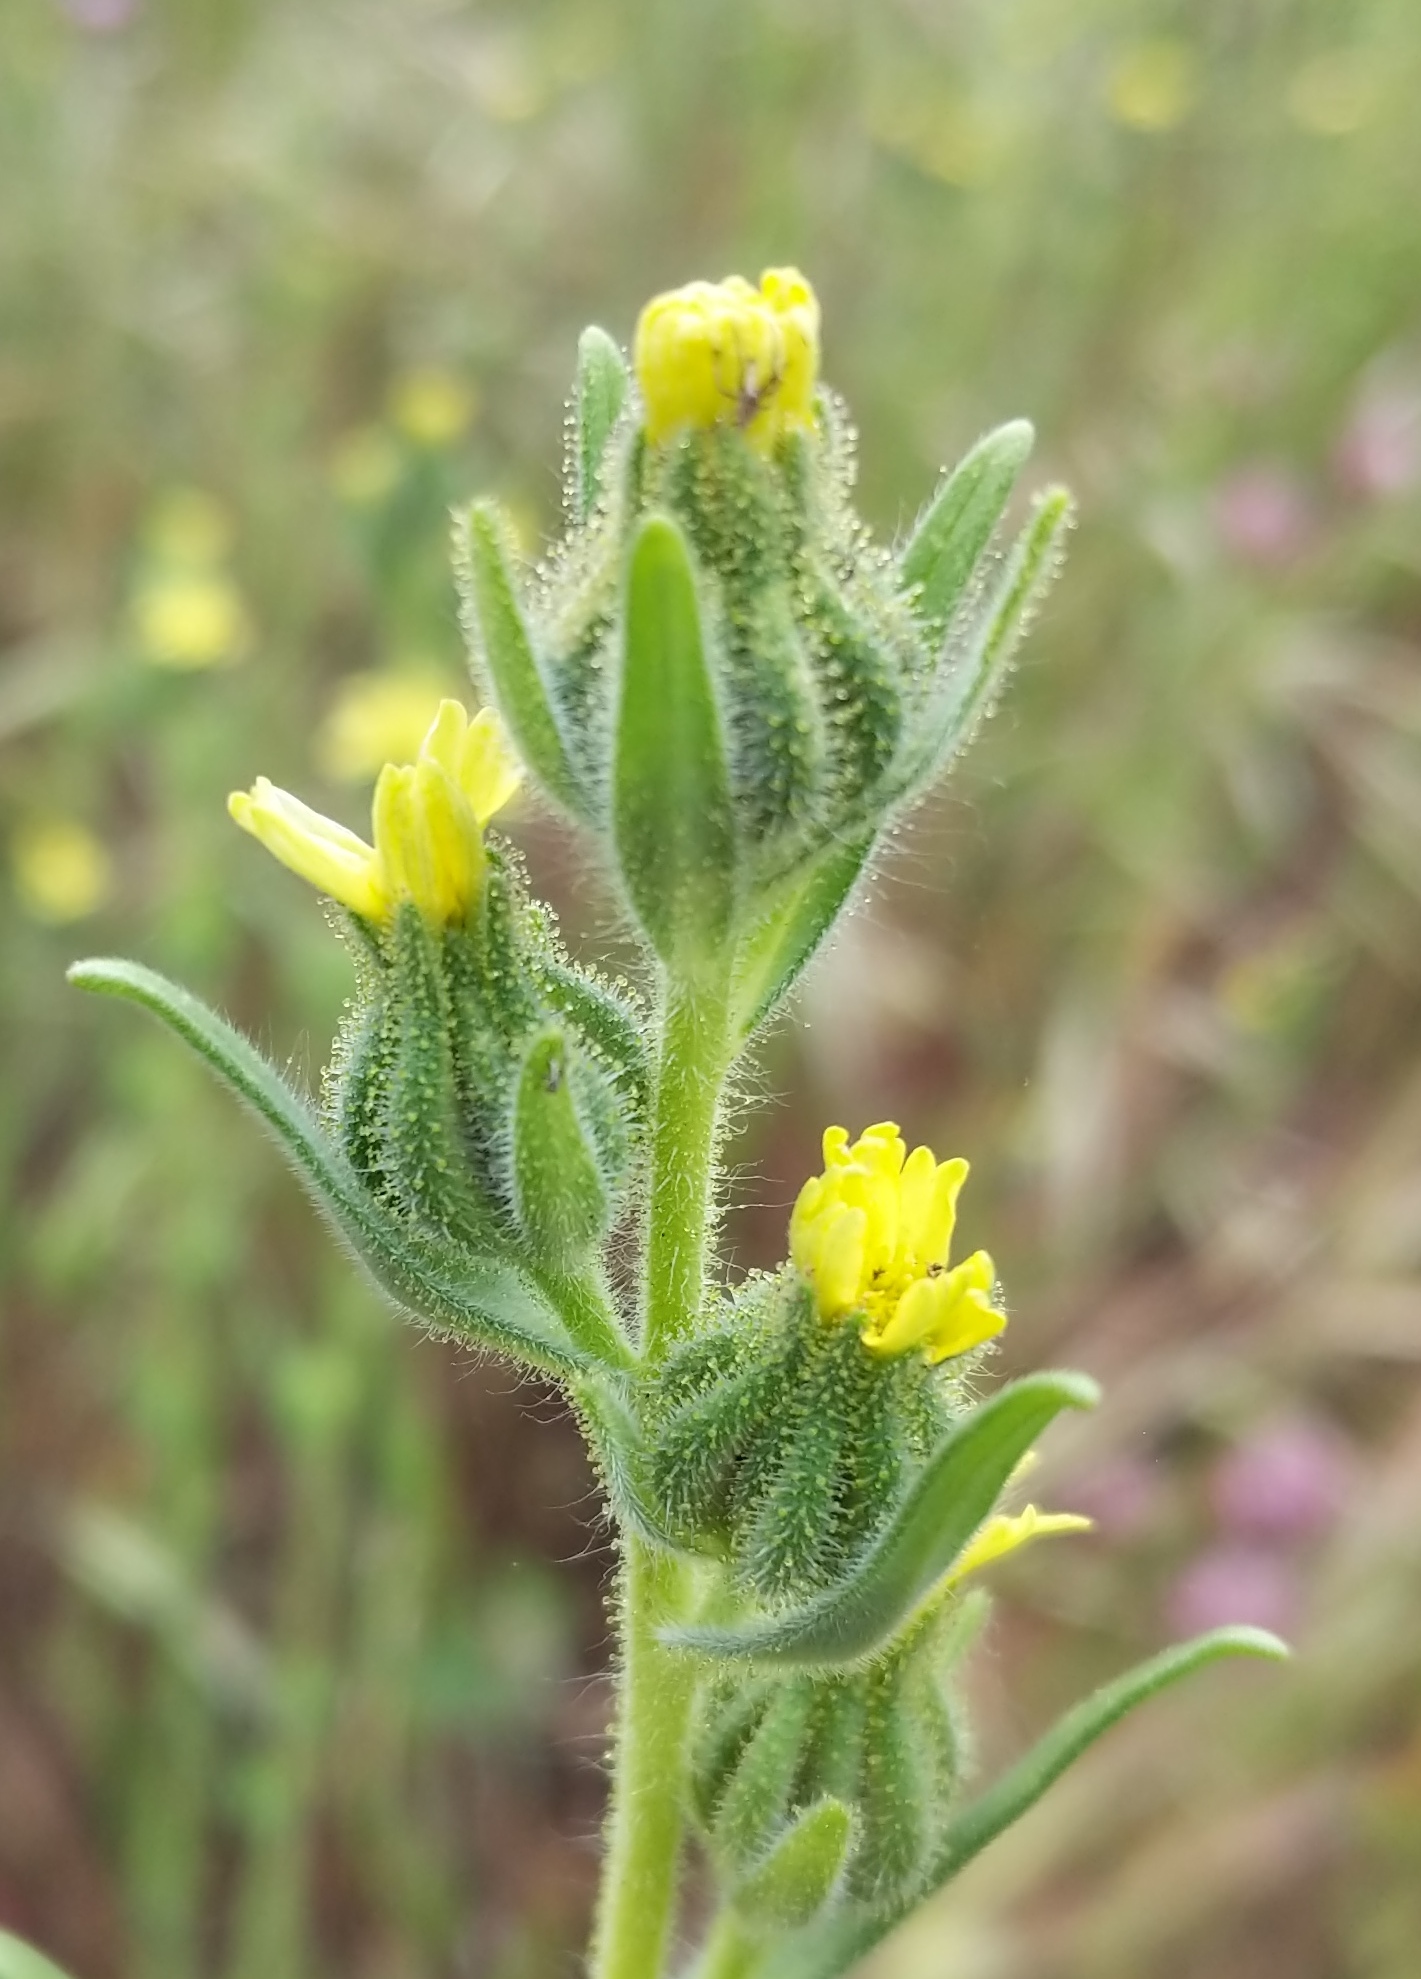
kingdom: Plantae
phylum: Tracheophyta
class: Magnoliopsida
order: Asterales
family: Asteraceae
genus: Madia
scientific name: Madia gracilis
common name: Grassy tarweed
